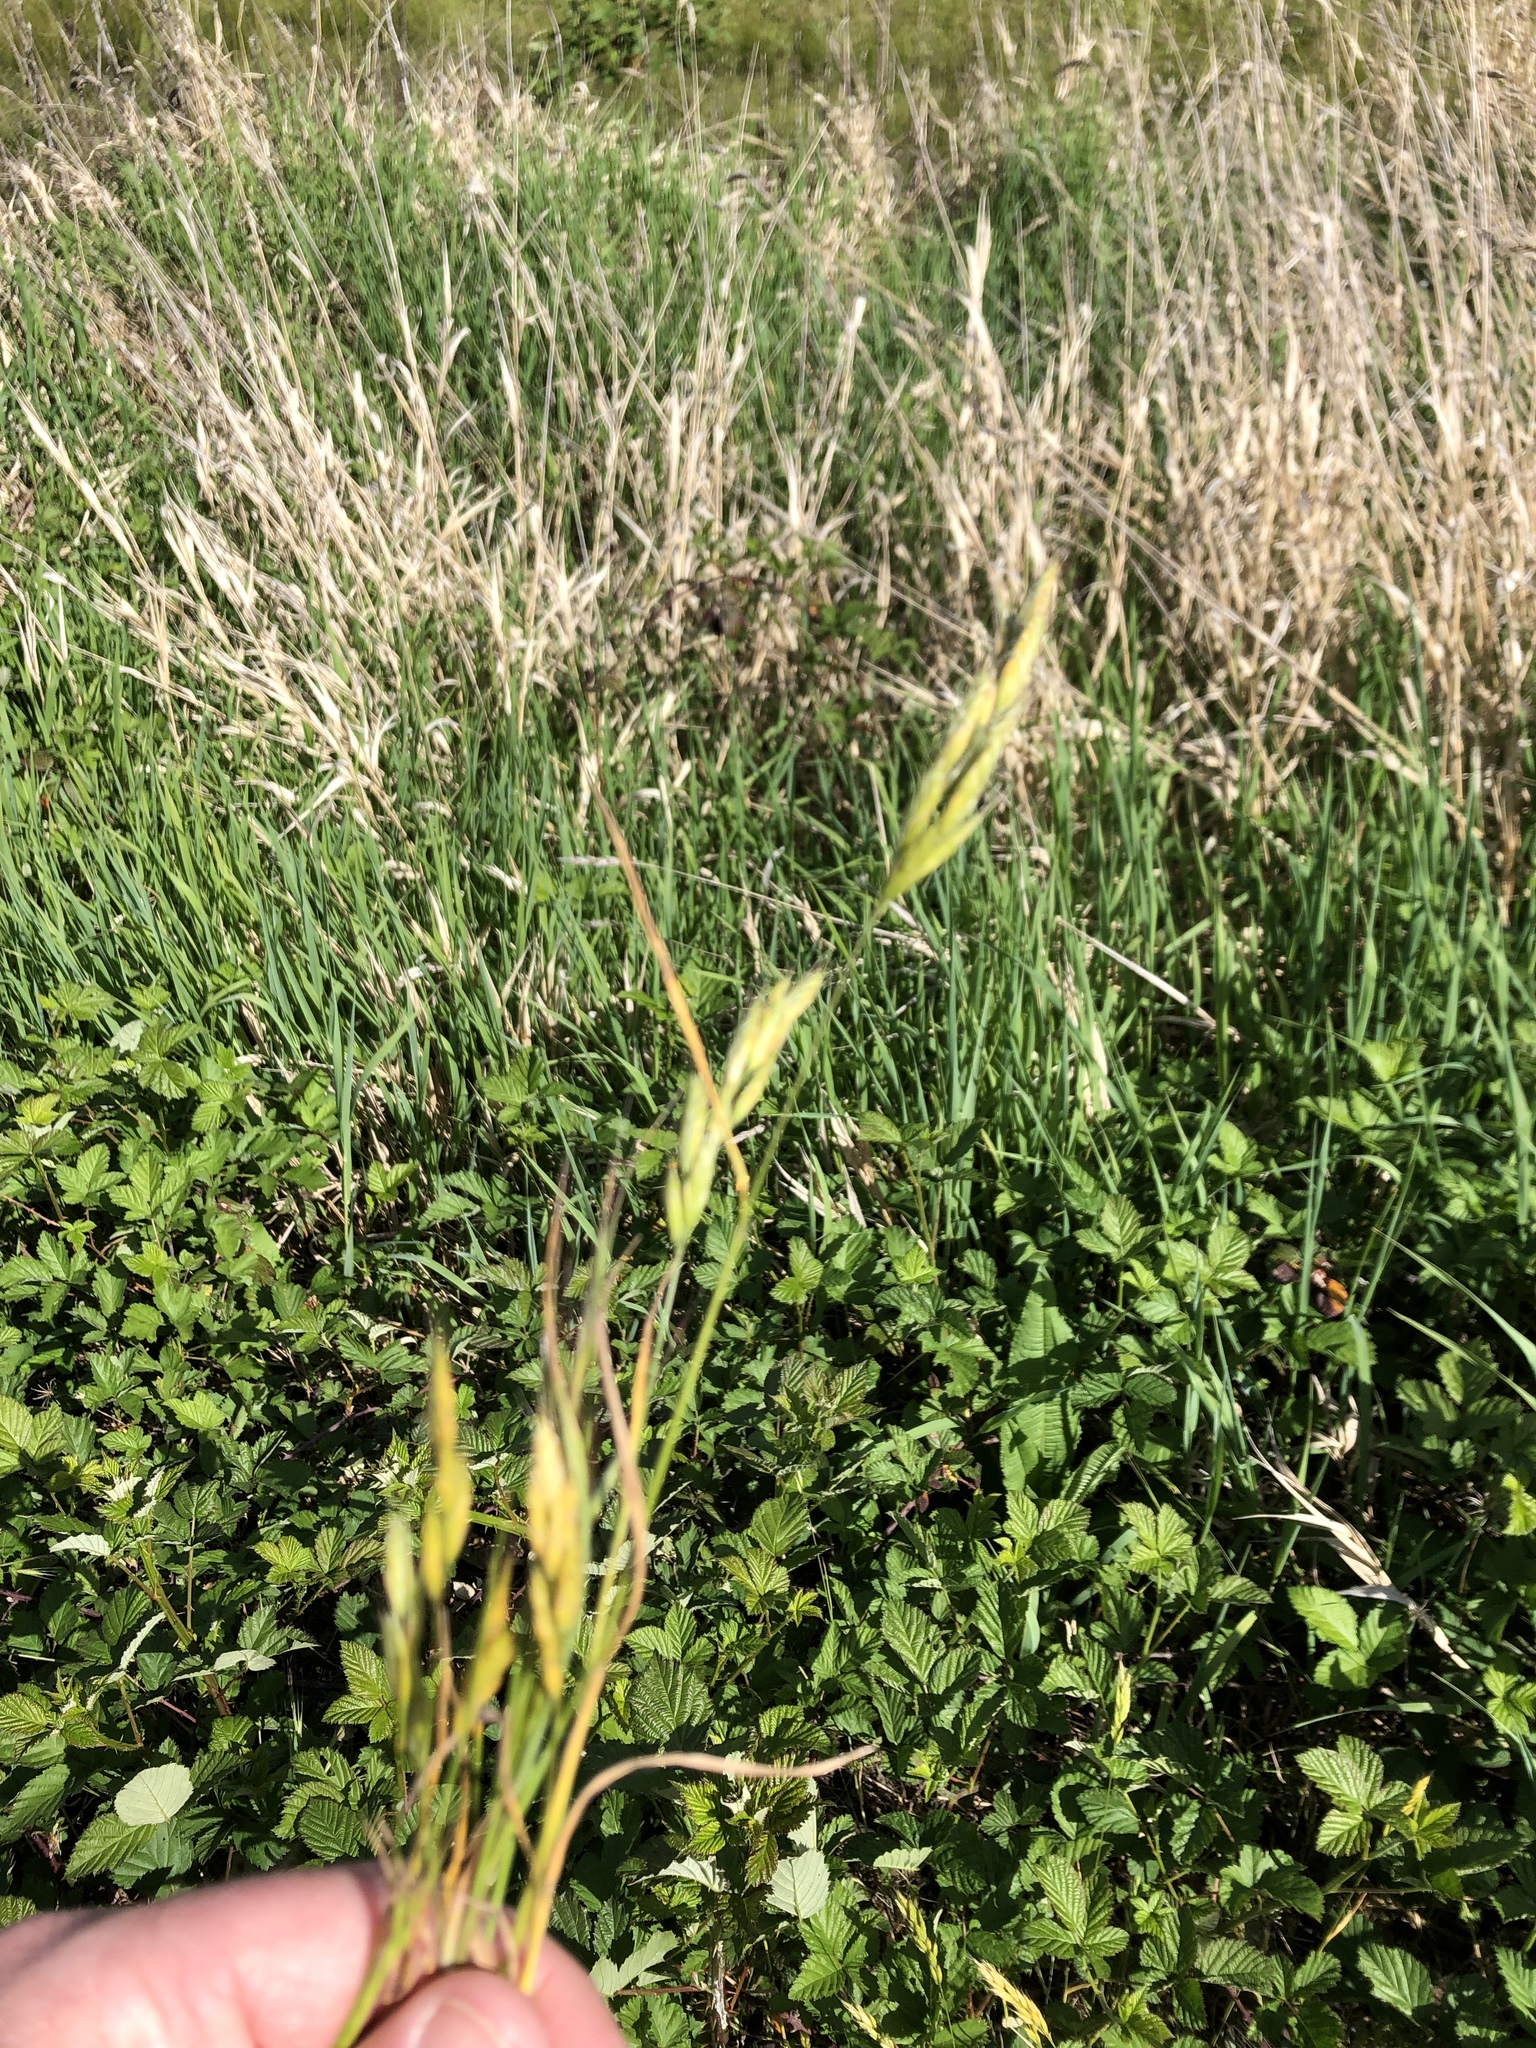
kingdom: Plantae
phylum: Tracheophyta
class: Liliopsida
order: Poales
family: Poaceae
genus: Bromus
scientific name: Bromus hordeaceus
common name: Soft brome
